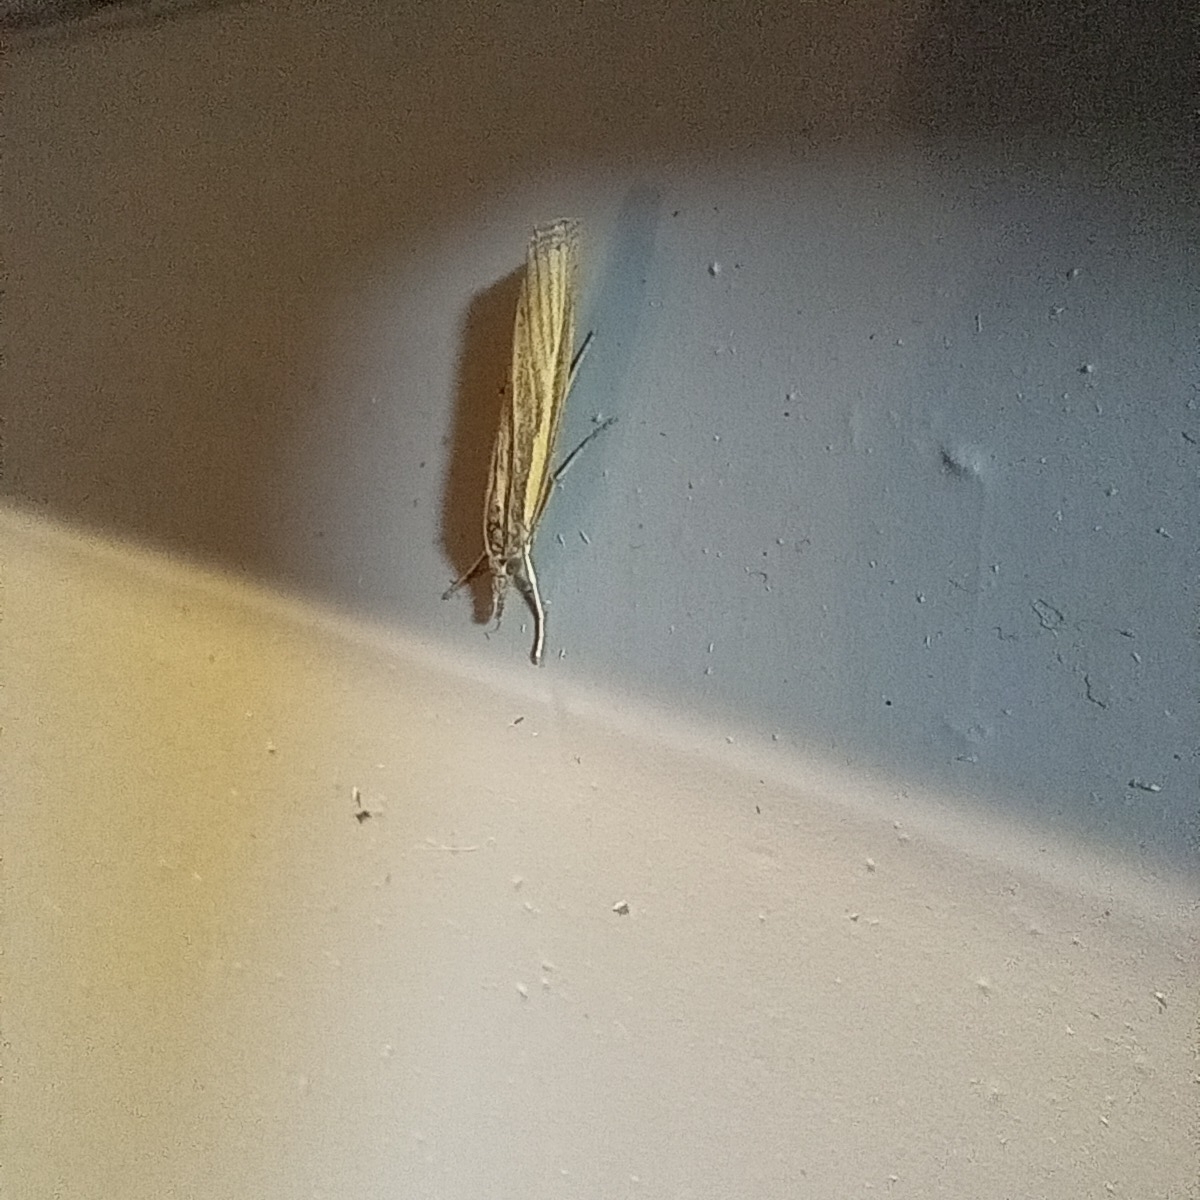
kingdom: Animalia
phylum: Arthropoda
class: Insecta
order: Lepidoptera
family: Crambidae
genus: Agriphila
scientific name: Agriphila tristellus
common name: Common grass-veneer
